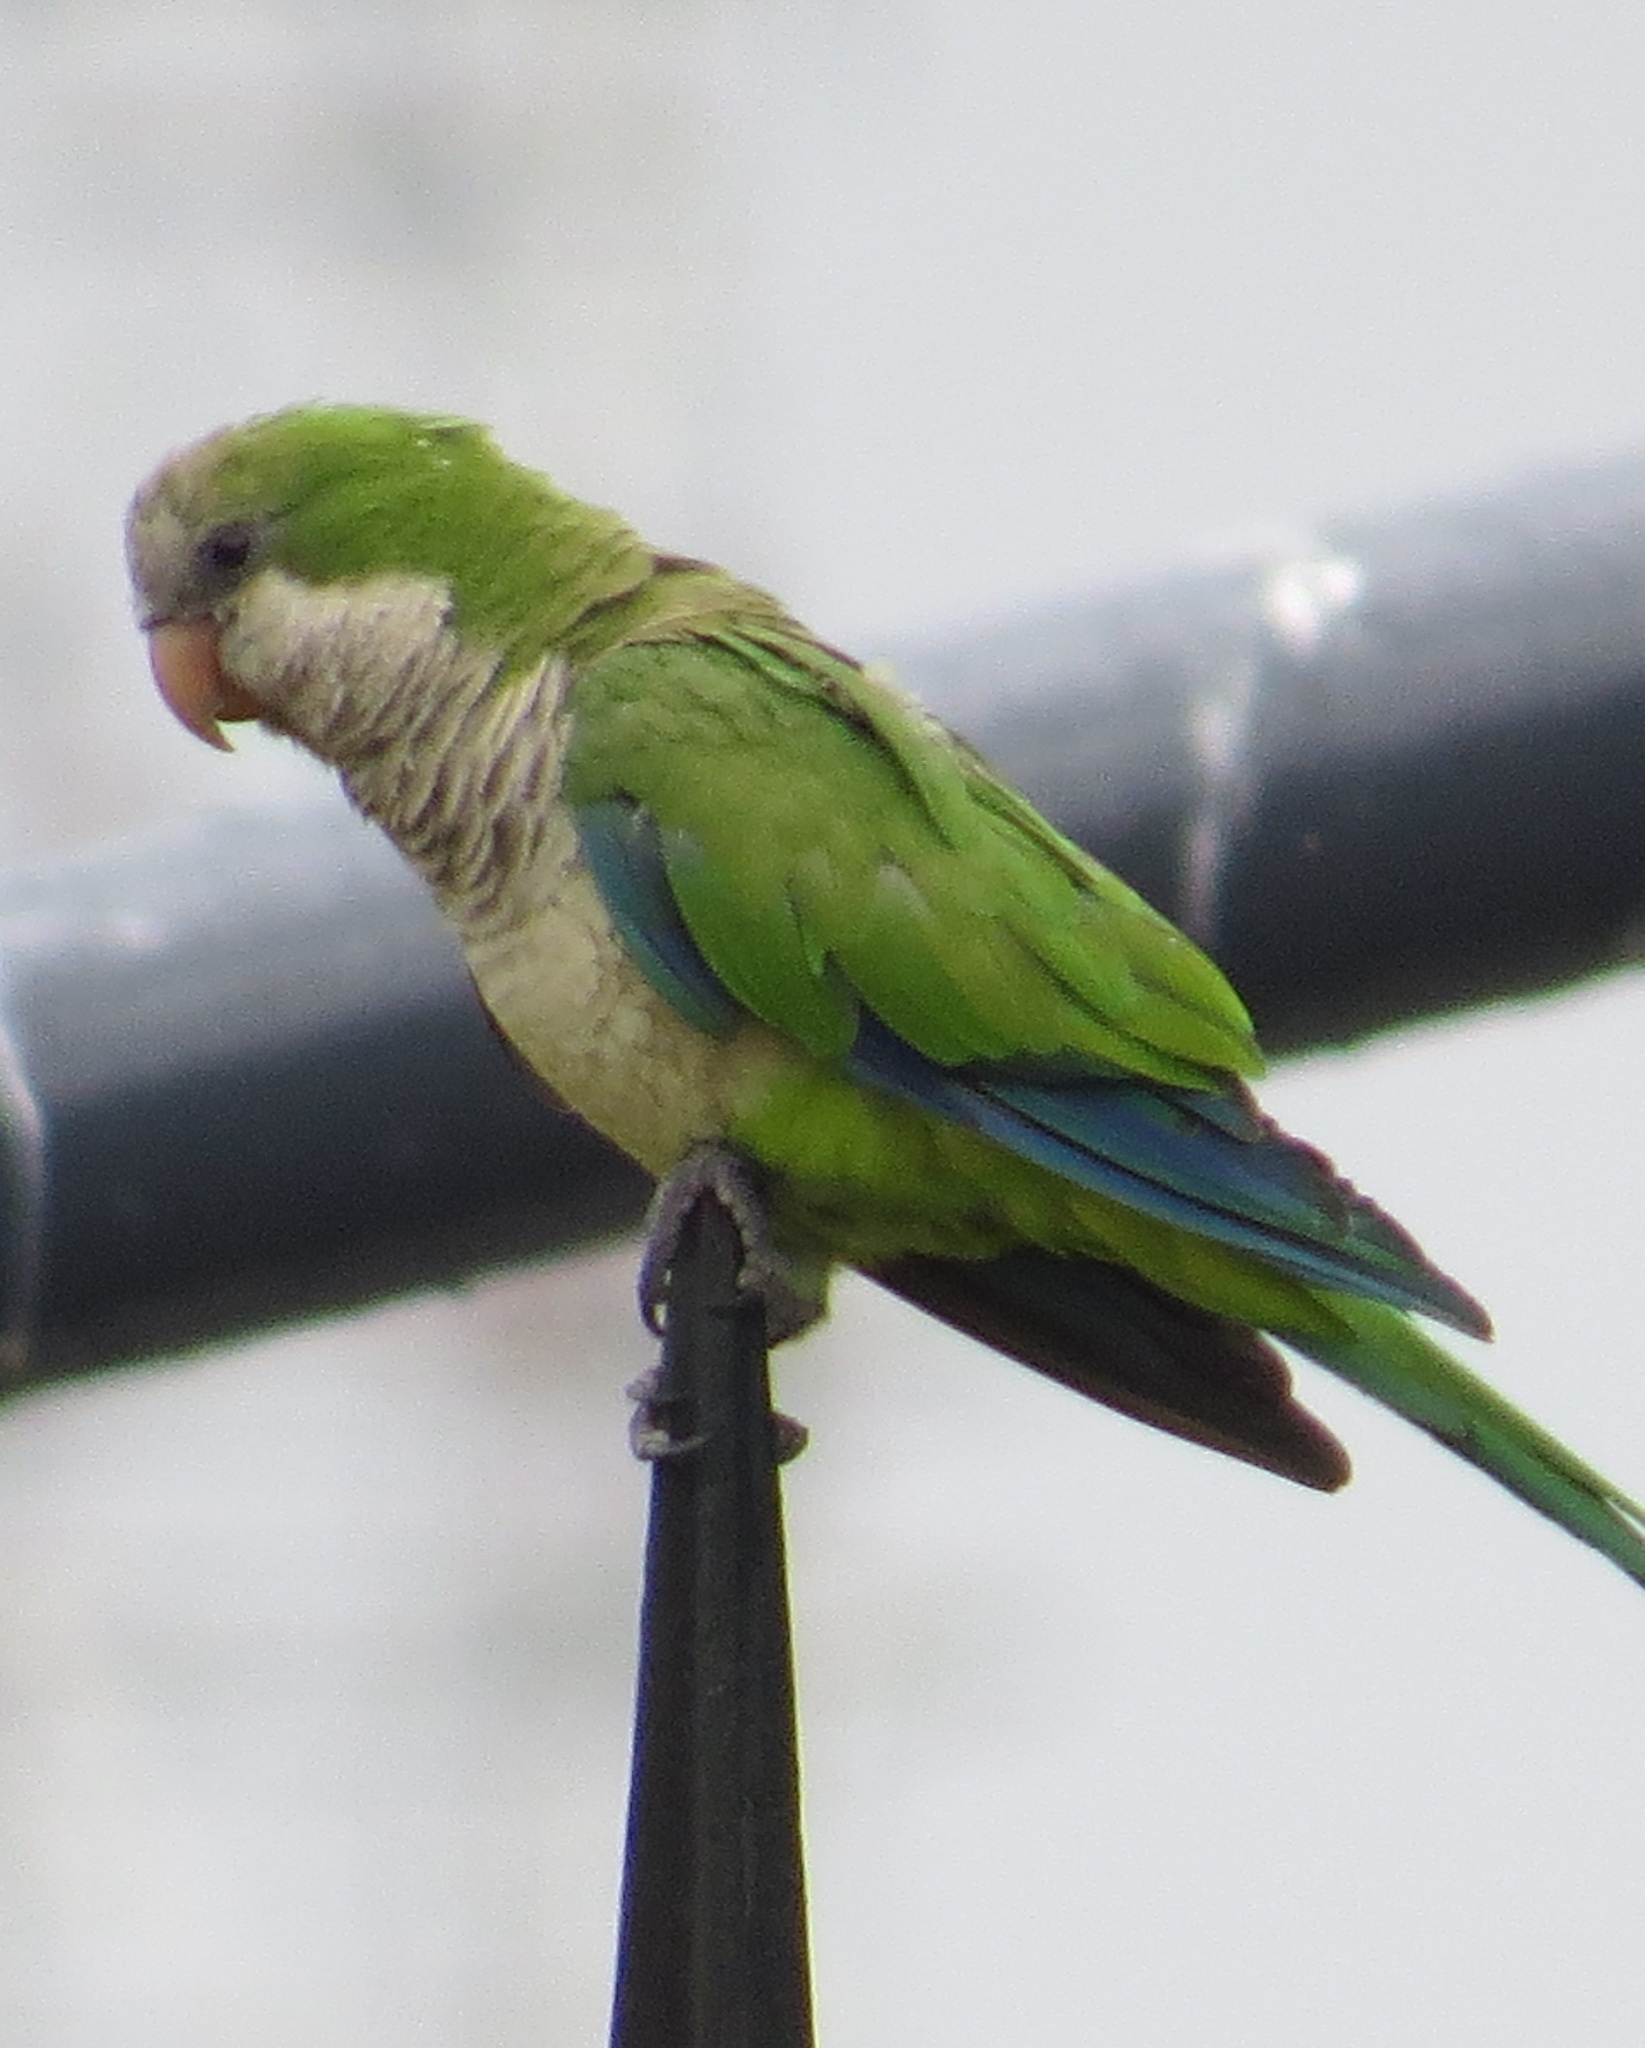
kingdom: Animalia
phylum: Chordata
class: Aves
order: Psittaciformes
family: Psittacidae
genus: Myiopsitta
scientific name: Myiopsitta monachus
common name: Monk parakeet
